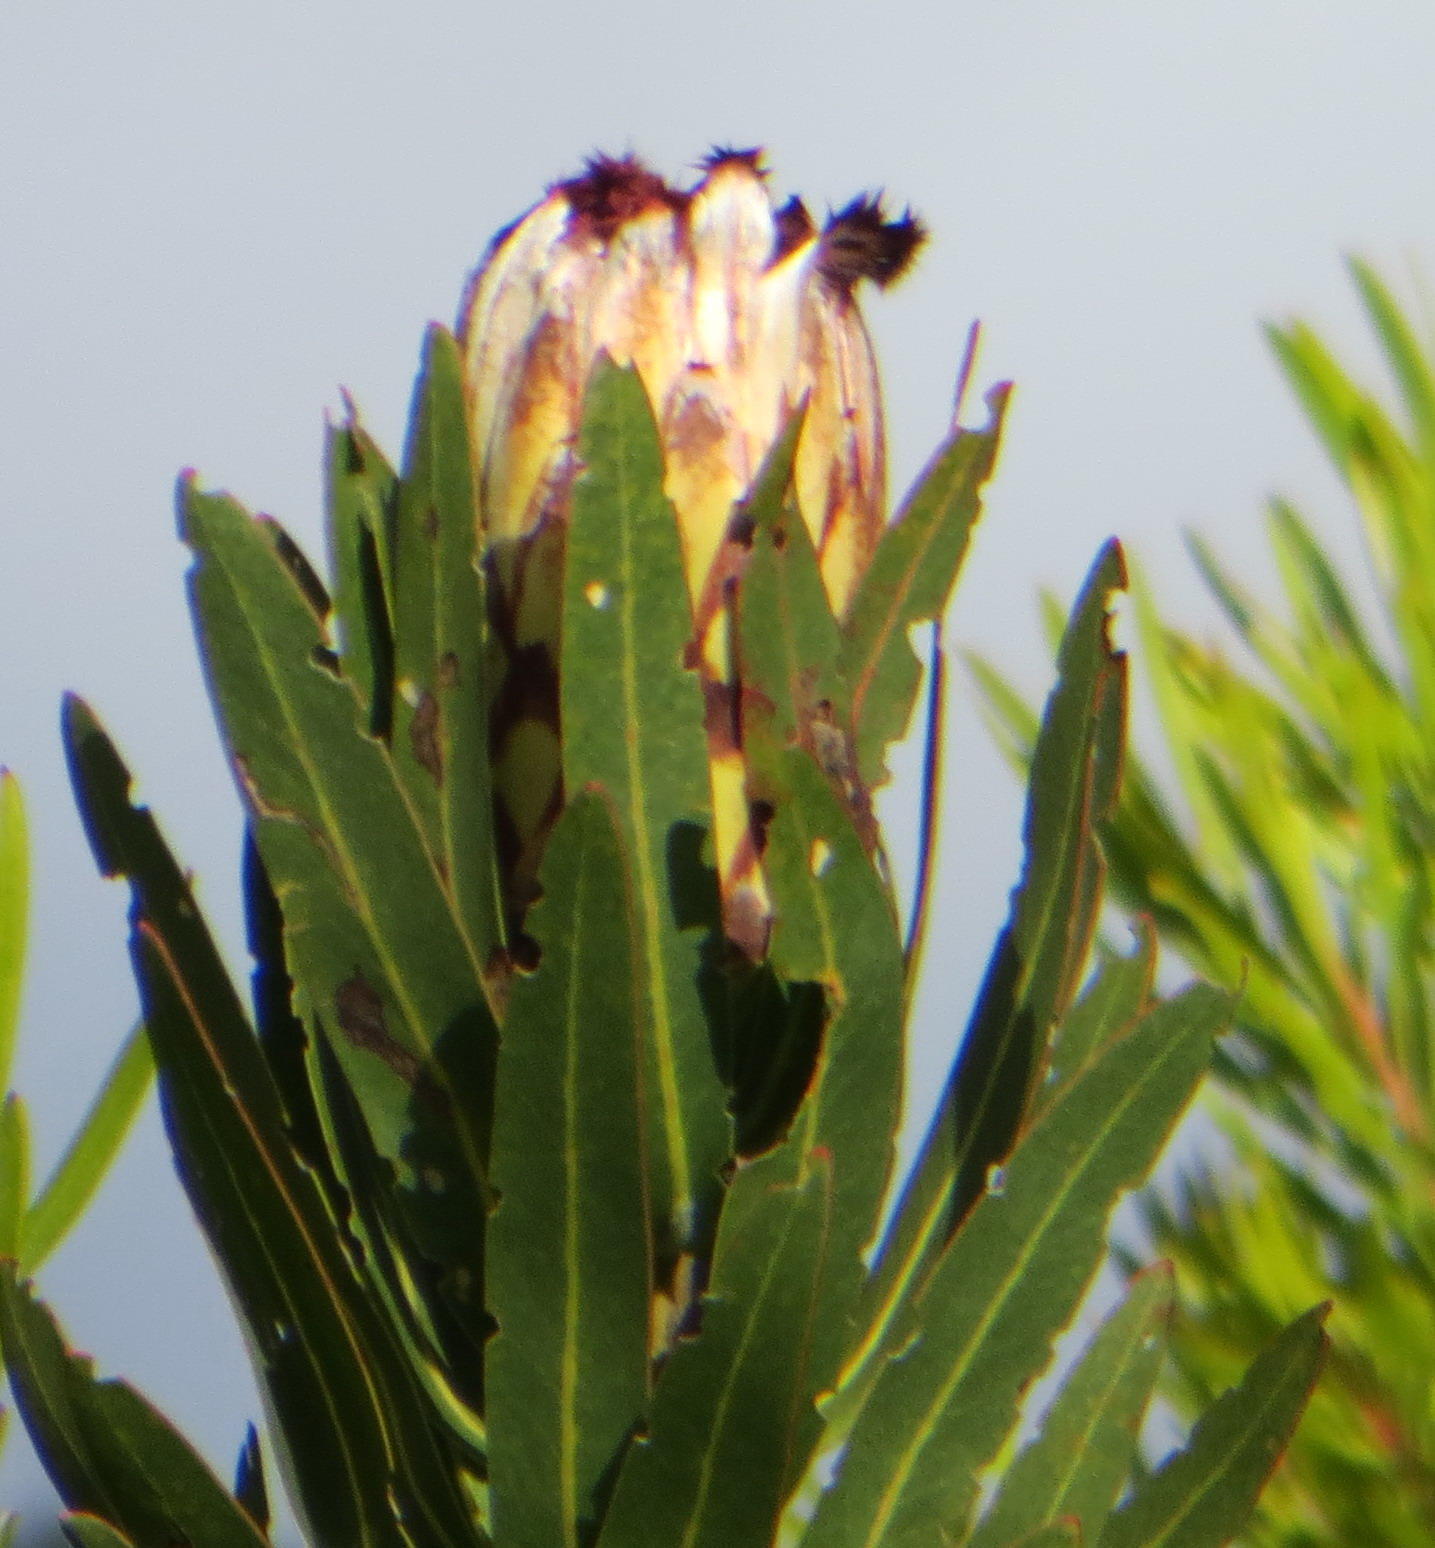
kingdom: Plantae
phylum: Tracheophyta
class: Magnoliopsida
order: Proteales
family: Proteaceae
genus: Protea
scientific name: Protea neriifolia
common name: Blue sugarbush
